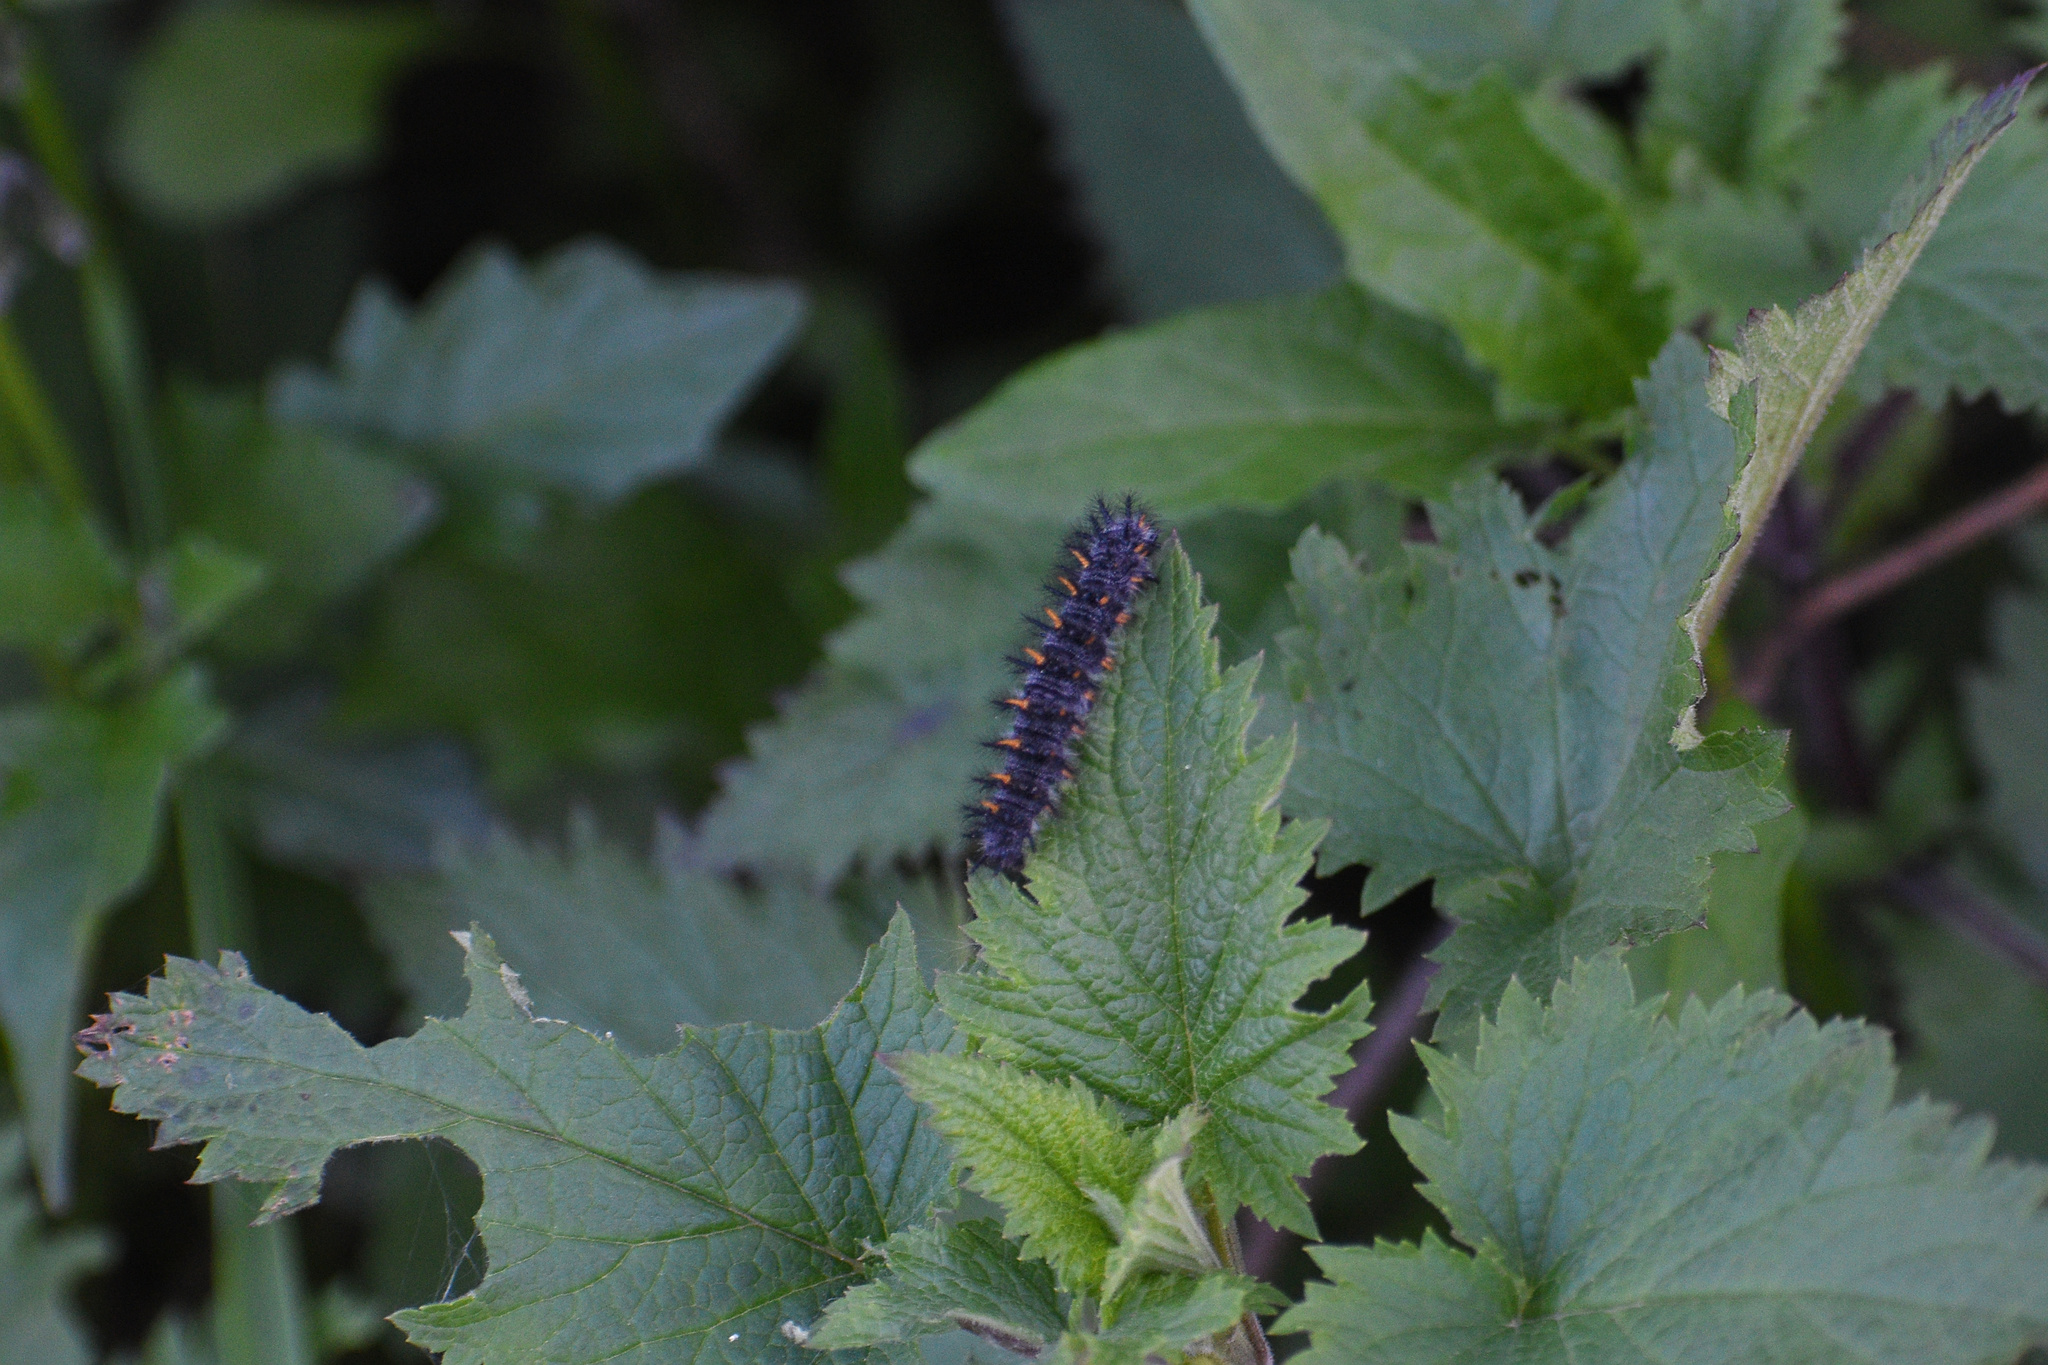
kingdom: Animalia
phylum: Arthropoda
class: Insecta
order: Lepidoptera
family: Nymphalidae
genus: Occidryas
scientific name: Occidryas chalcedona
